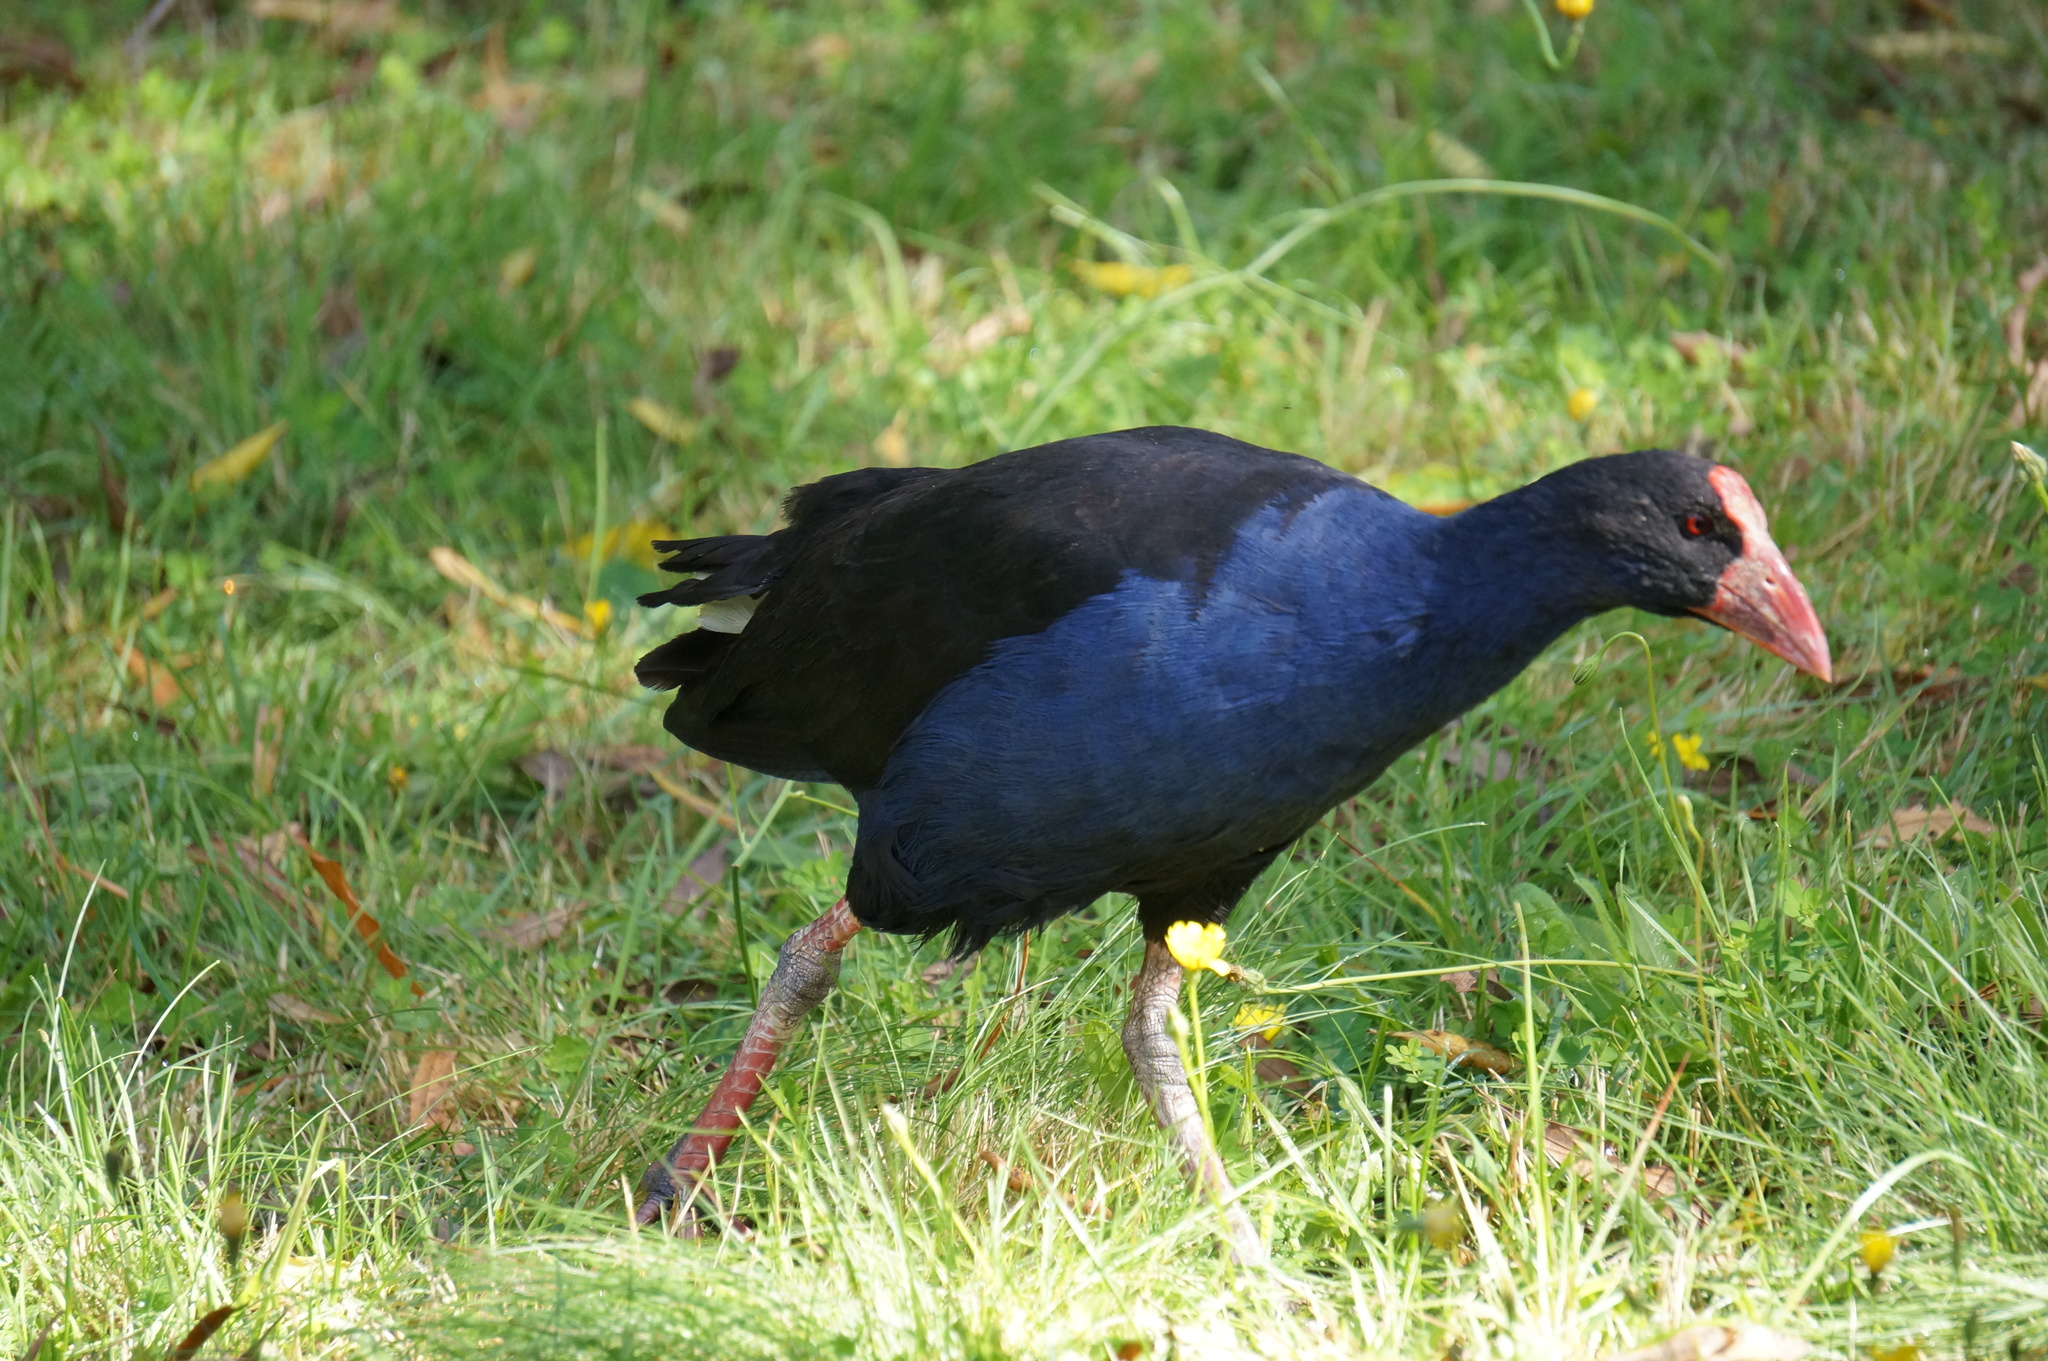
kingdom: Animalia
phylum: Chordata
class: Aves
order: Gruiformes
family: Rallidae
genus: Porphyrio
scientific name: Porphyrio melanotus
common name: Australasian swamphen
